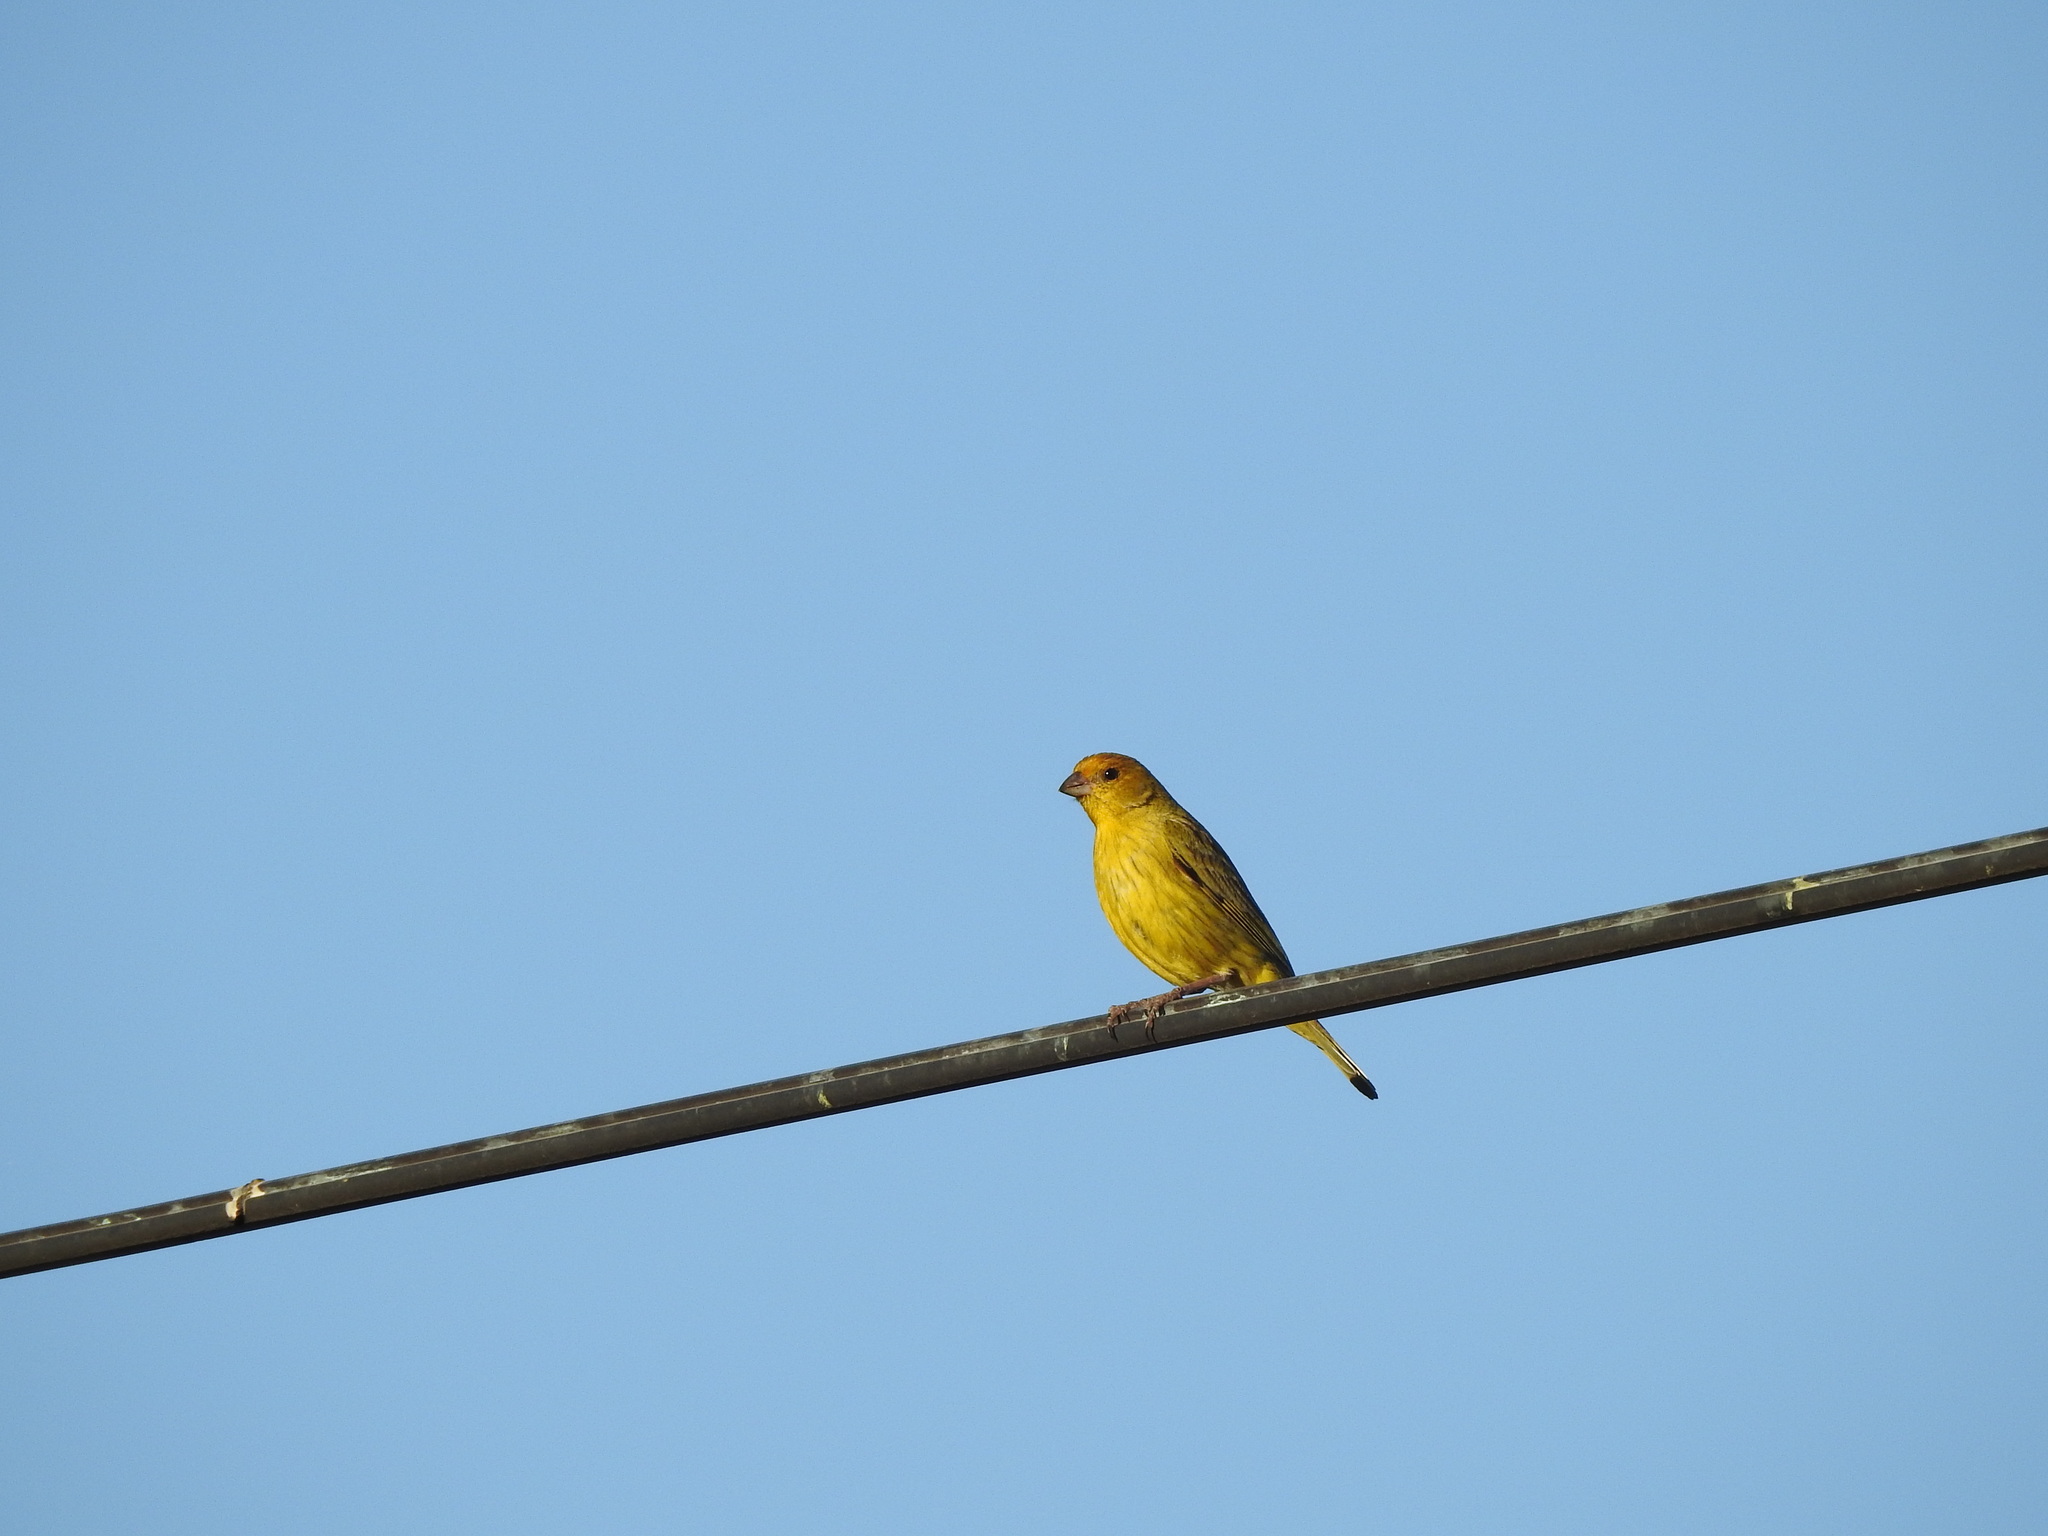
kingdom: Animalia
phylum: Chordata
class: Aves
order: Passeriformes
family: Thraupidae
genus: Sicalis
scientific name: Sicalis flaveola
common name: Saffron finch
